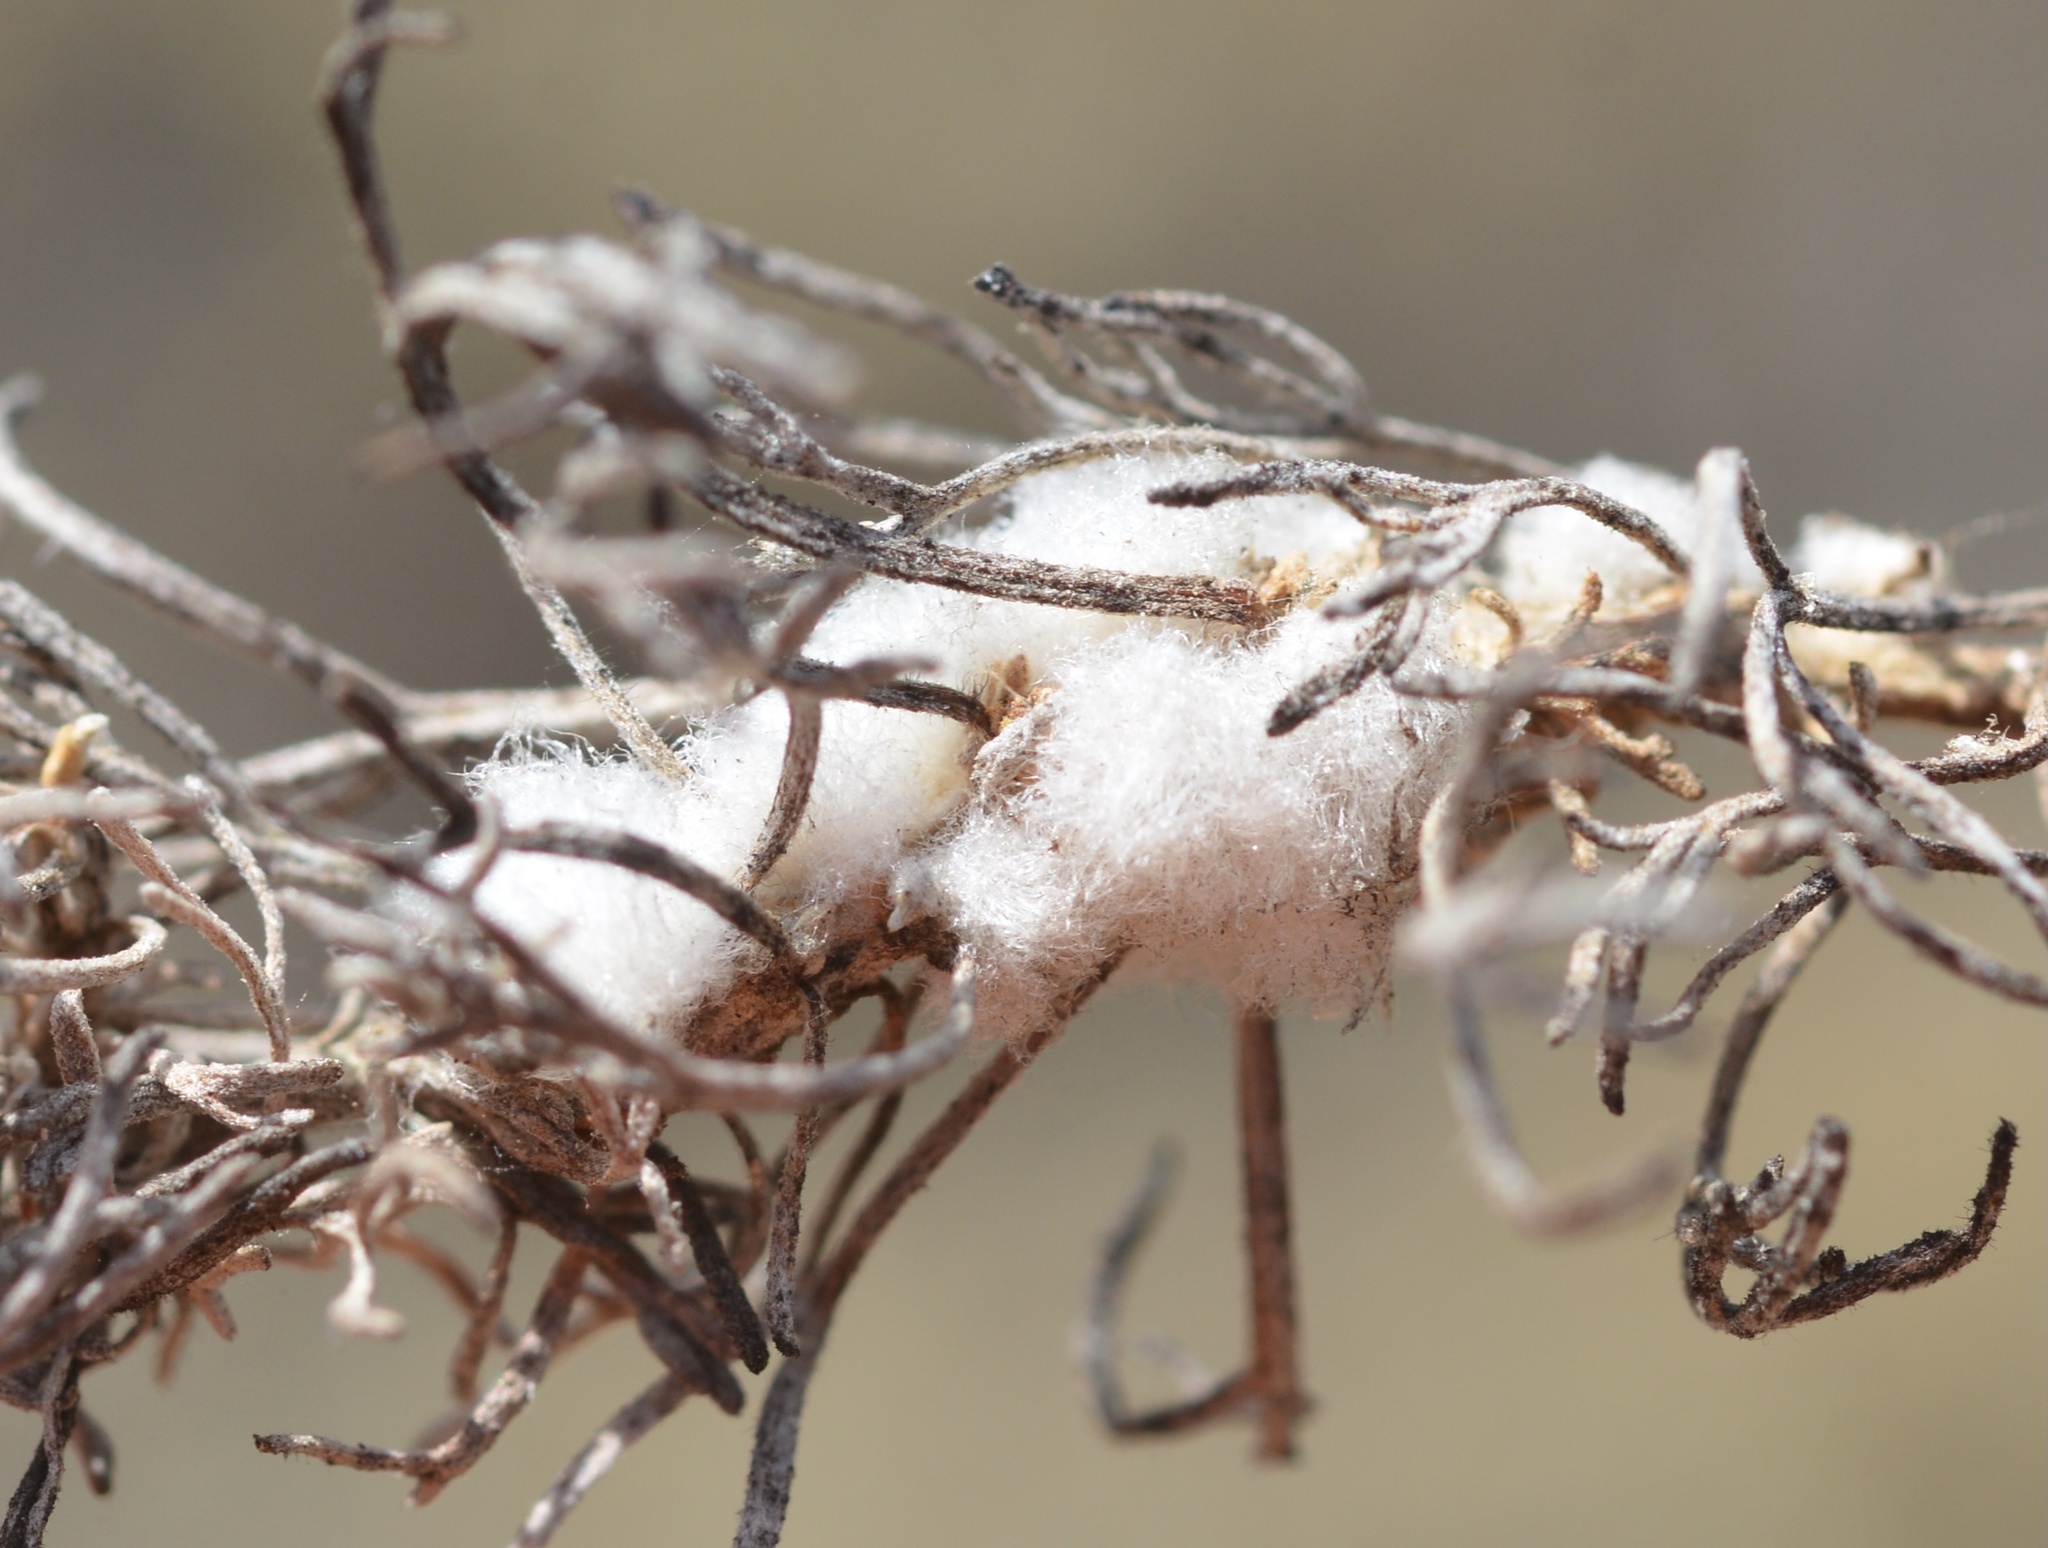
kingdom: Animalia
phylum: Arthropoda
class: Insecta
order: Diptera
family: Cecidomyiidae
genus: Rhopalomyia
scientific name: Rhopalomyia floccosa
